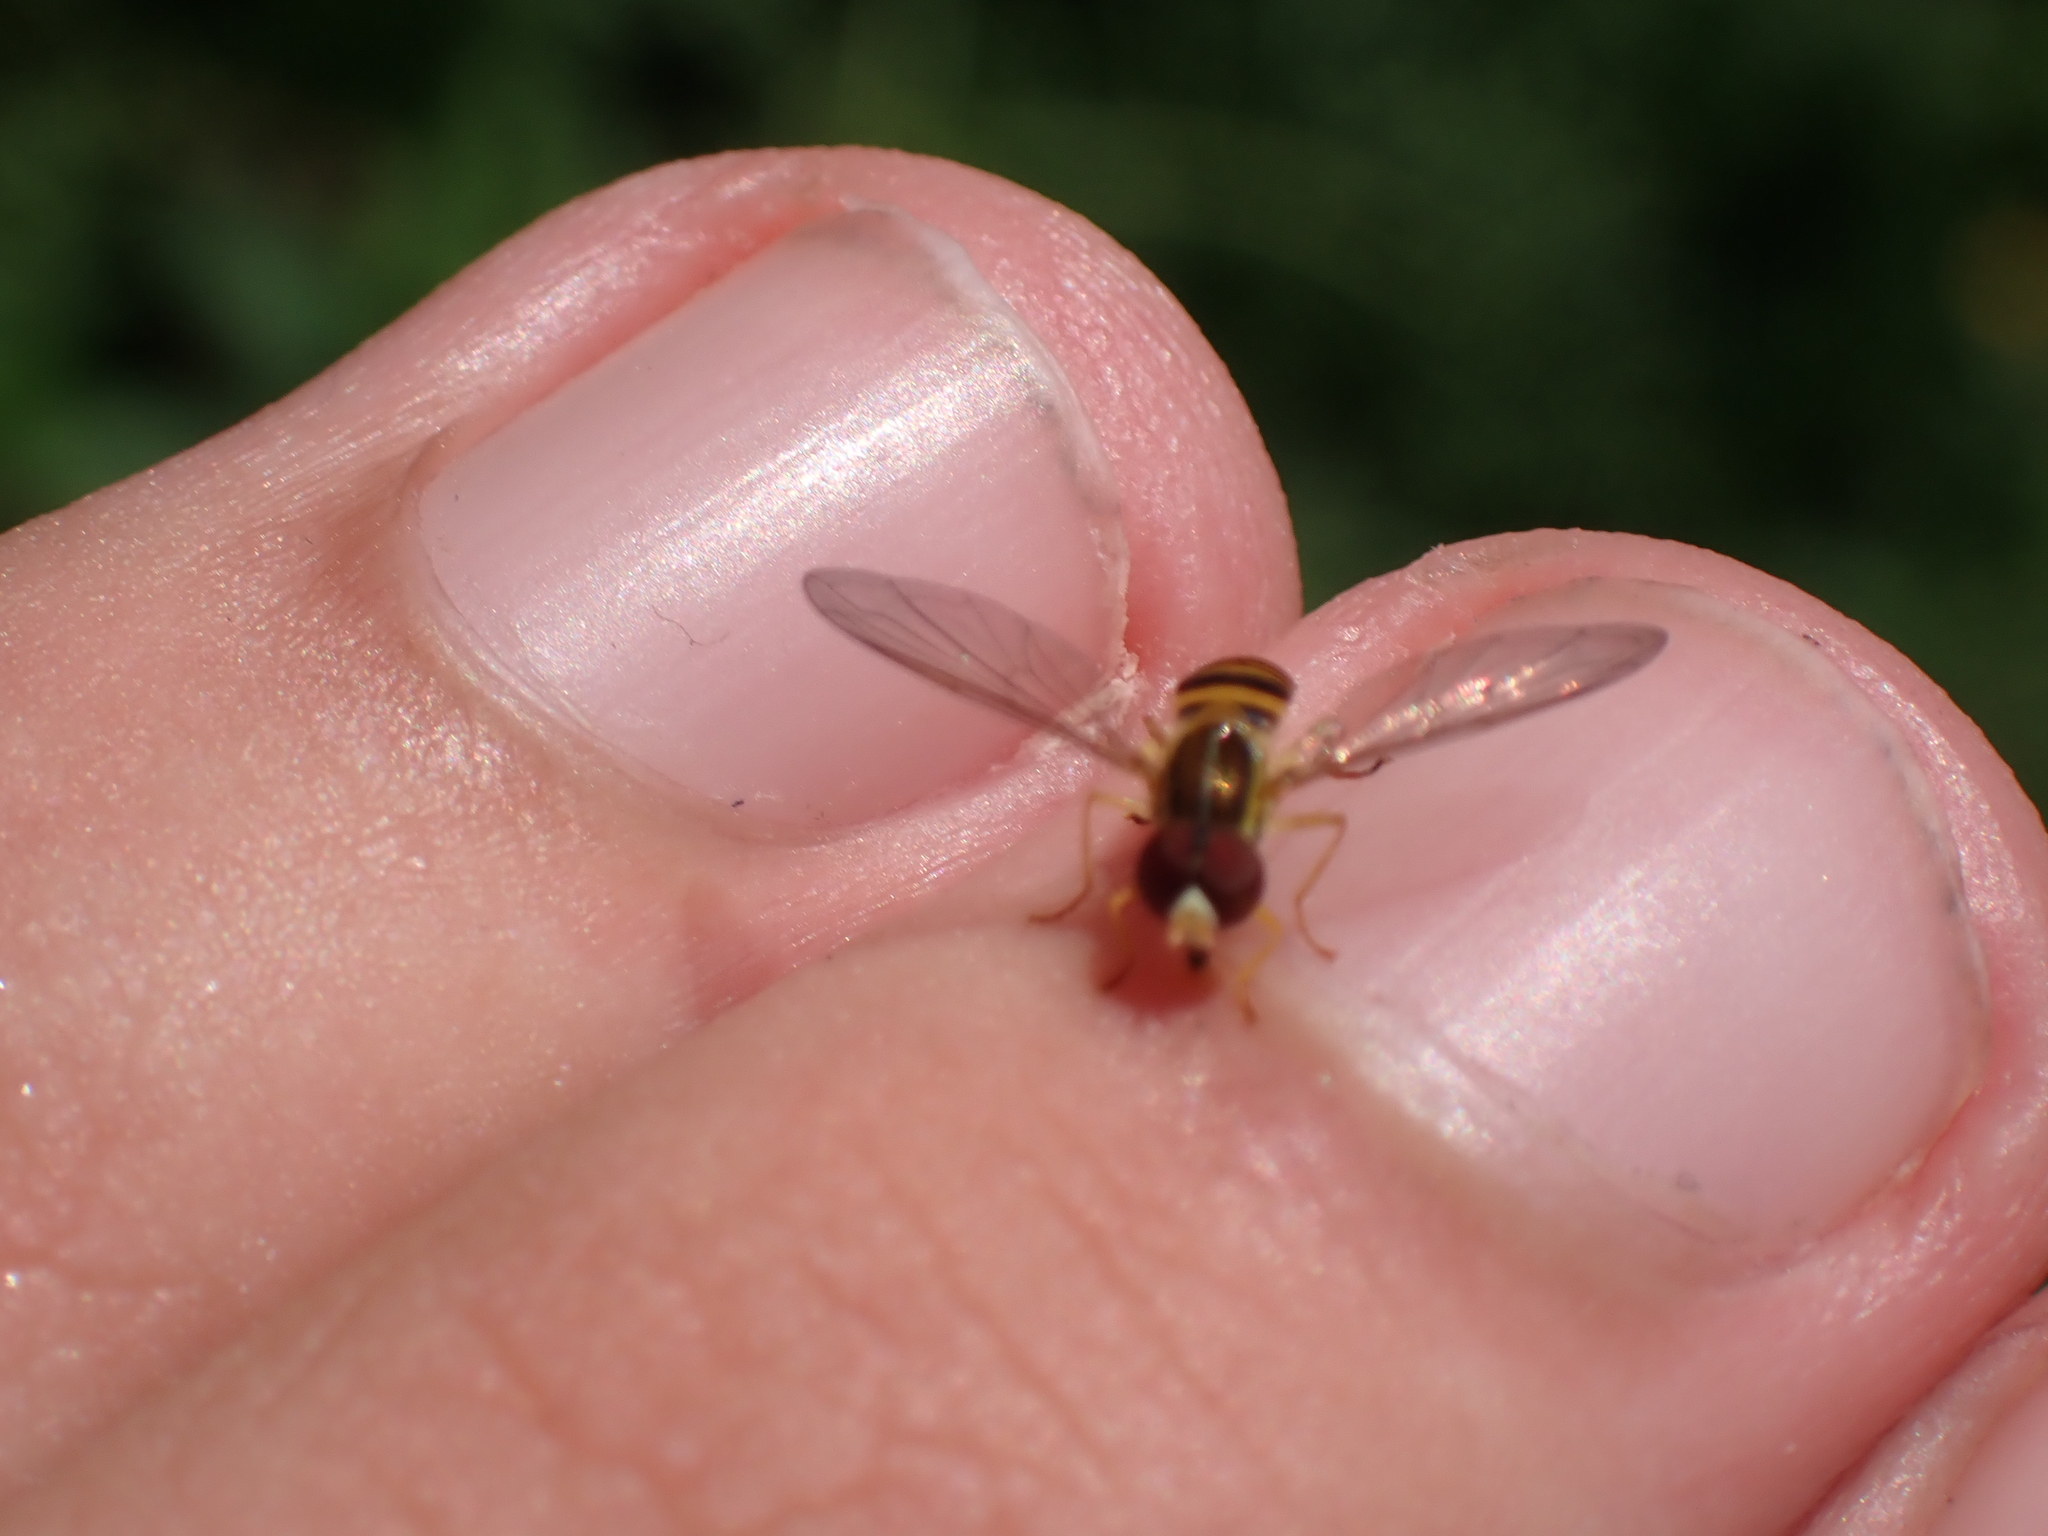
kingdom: Animalia
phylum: Arthropoda
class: Insecta
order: Diptera
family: Syrphidae
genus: Toxomerus
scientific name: Toxomerus politus
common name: Maize calligrapher
